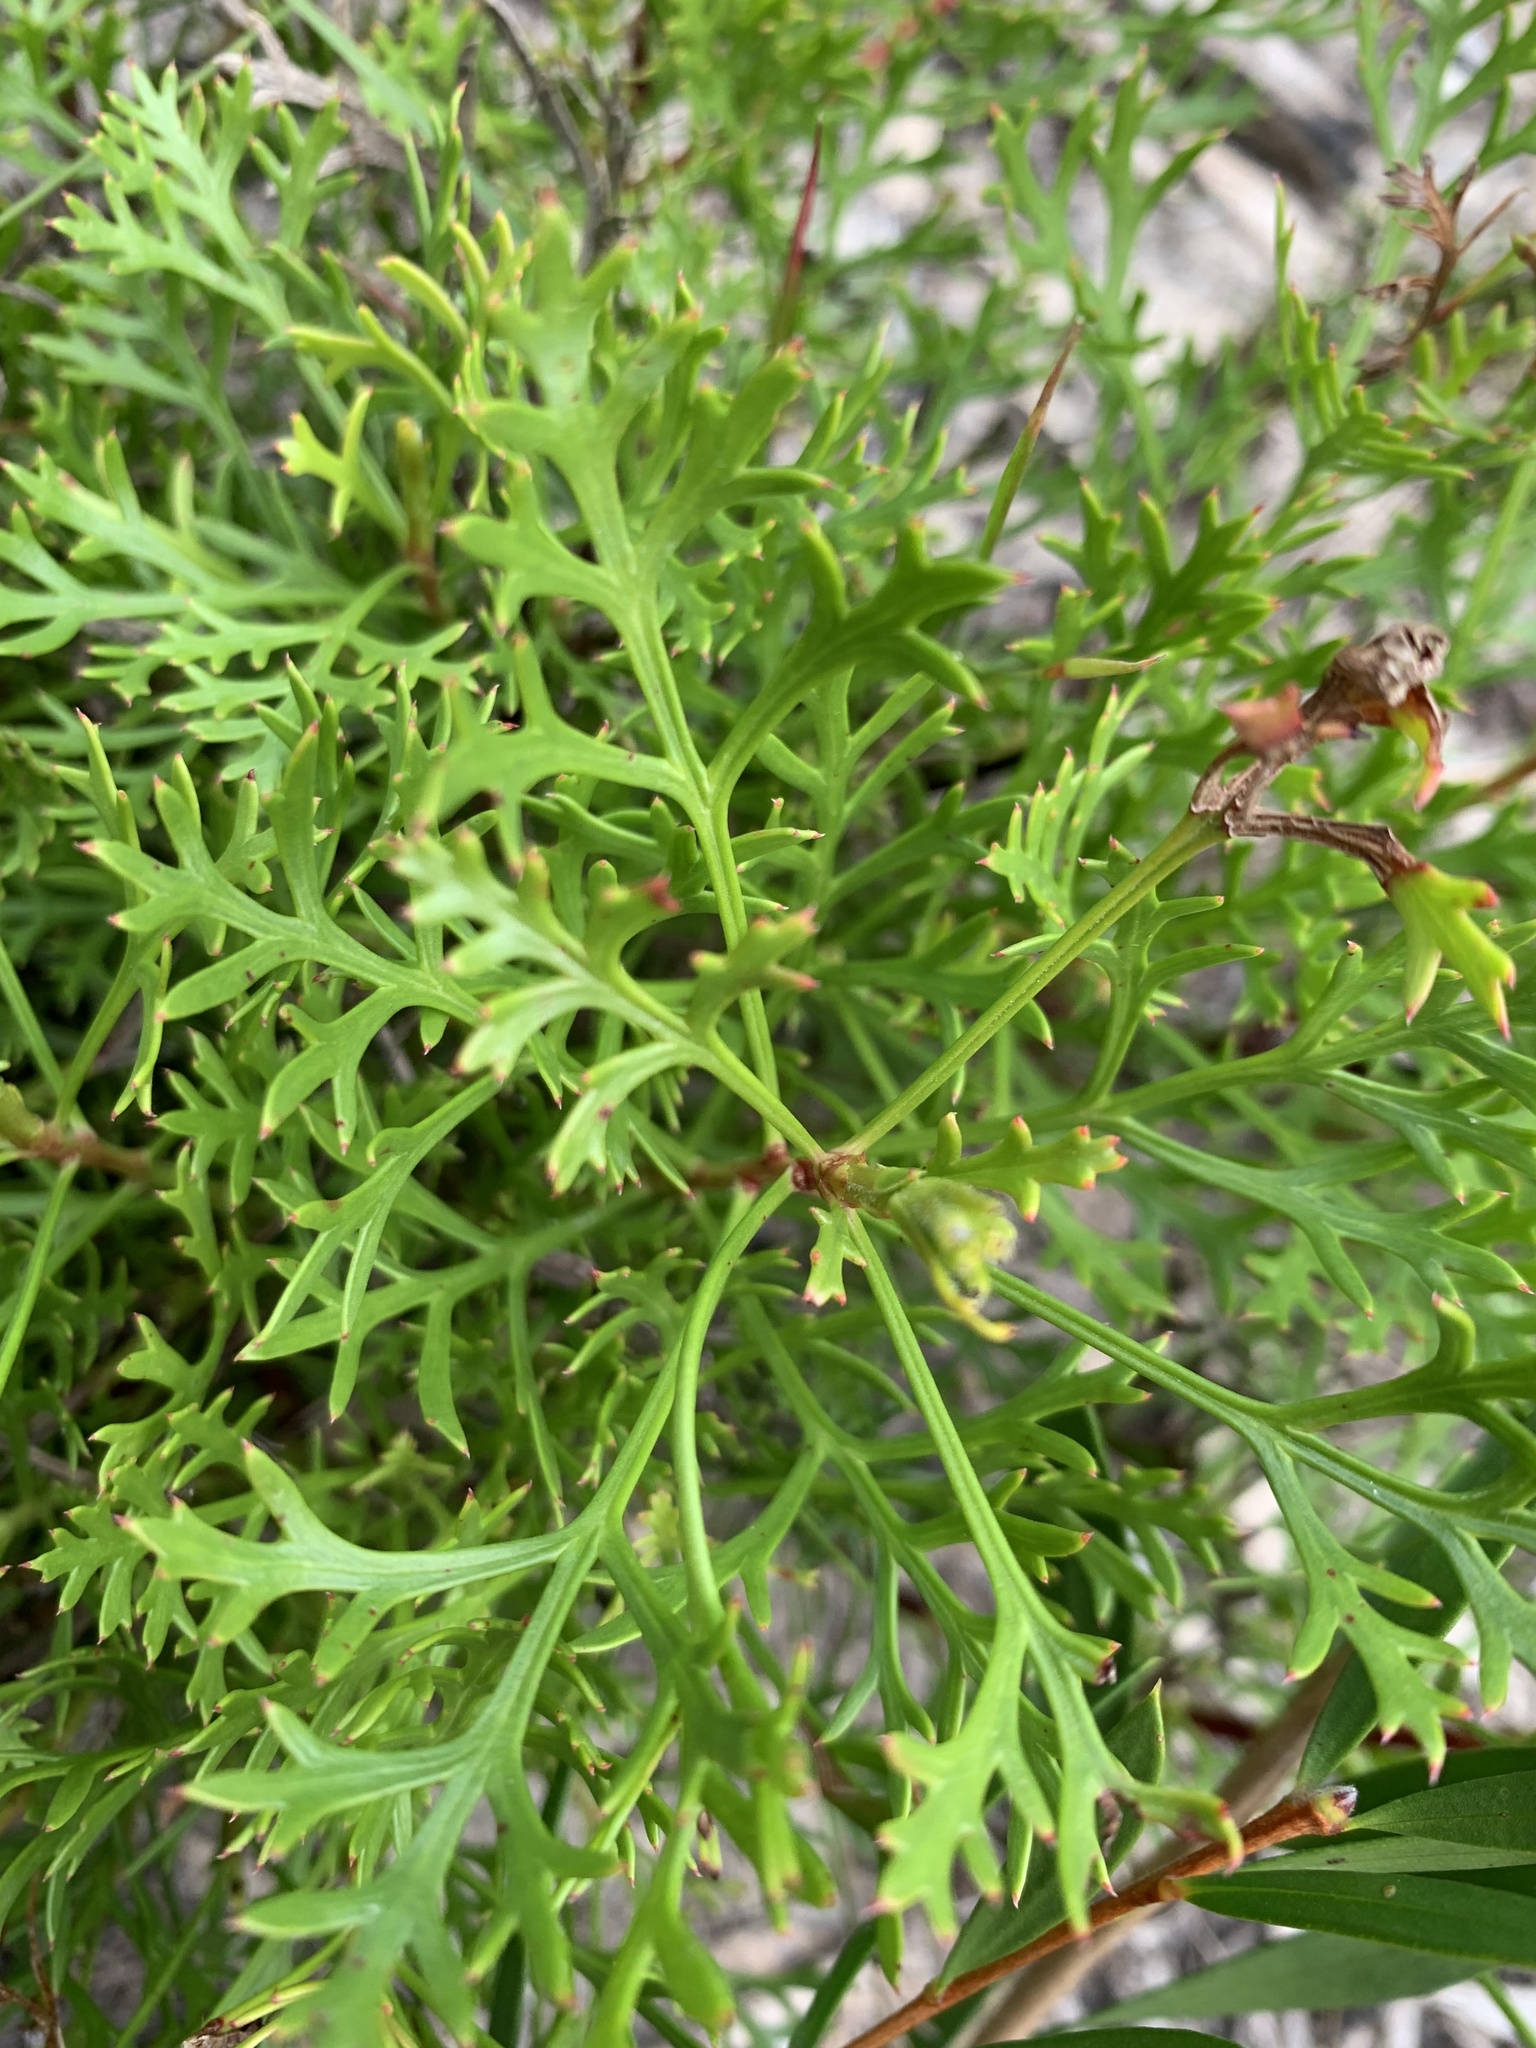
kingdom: Plantae
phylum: Tracheophyta
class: Magnoliopsida
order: Proteales
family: Proteaceae
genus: Isopogon
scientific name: Isopogon anemonifolius
